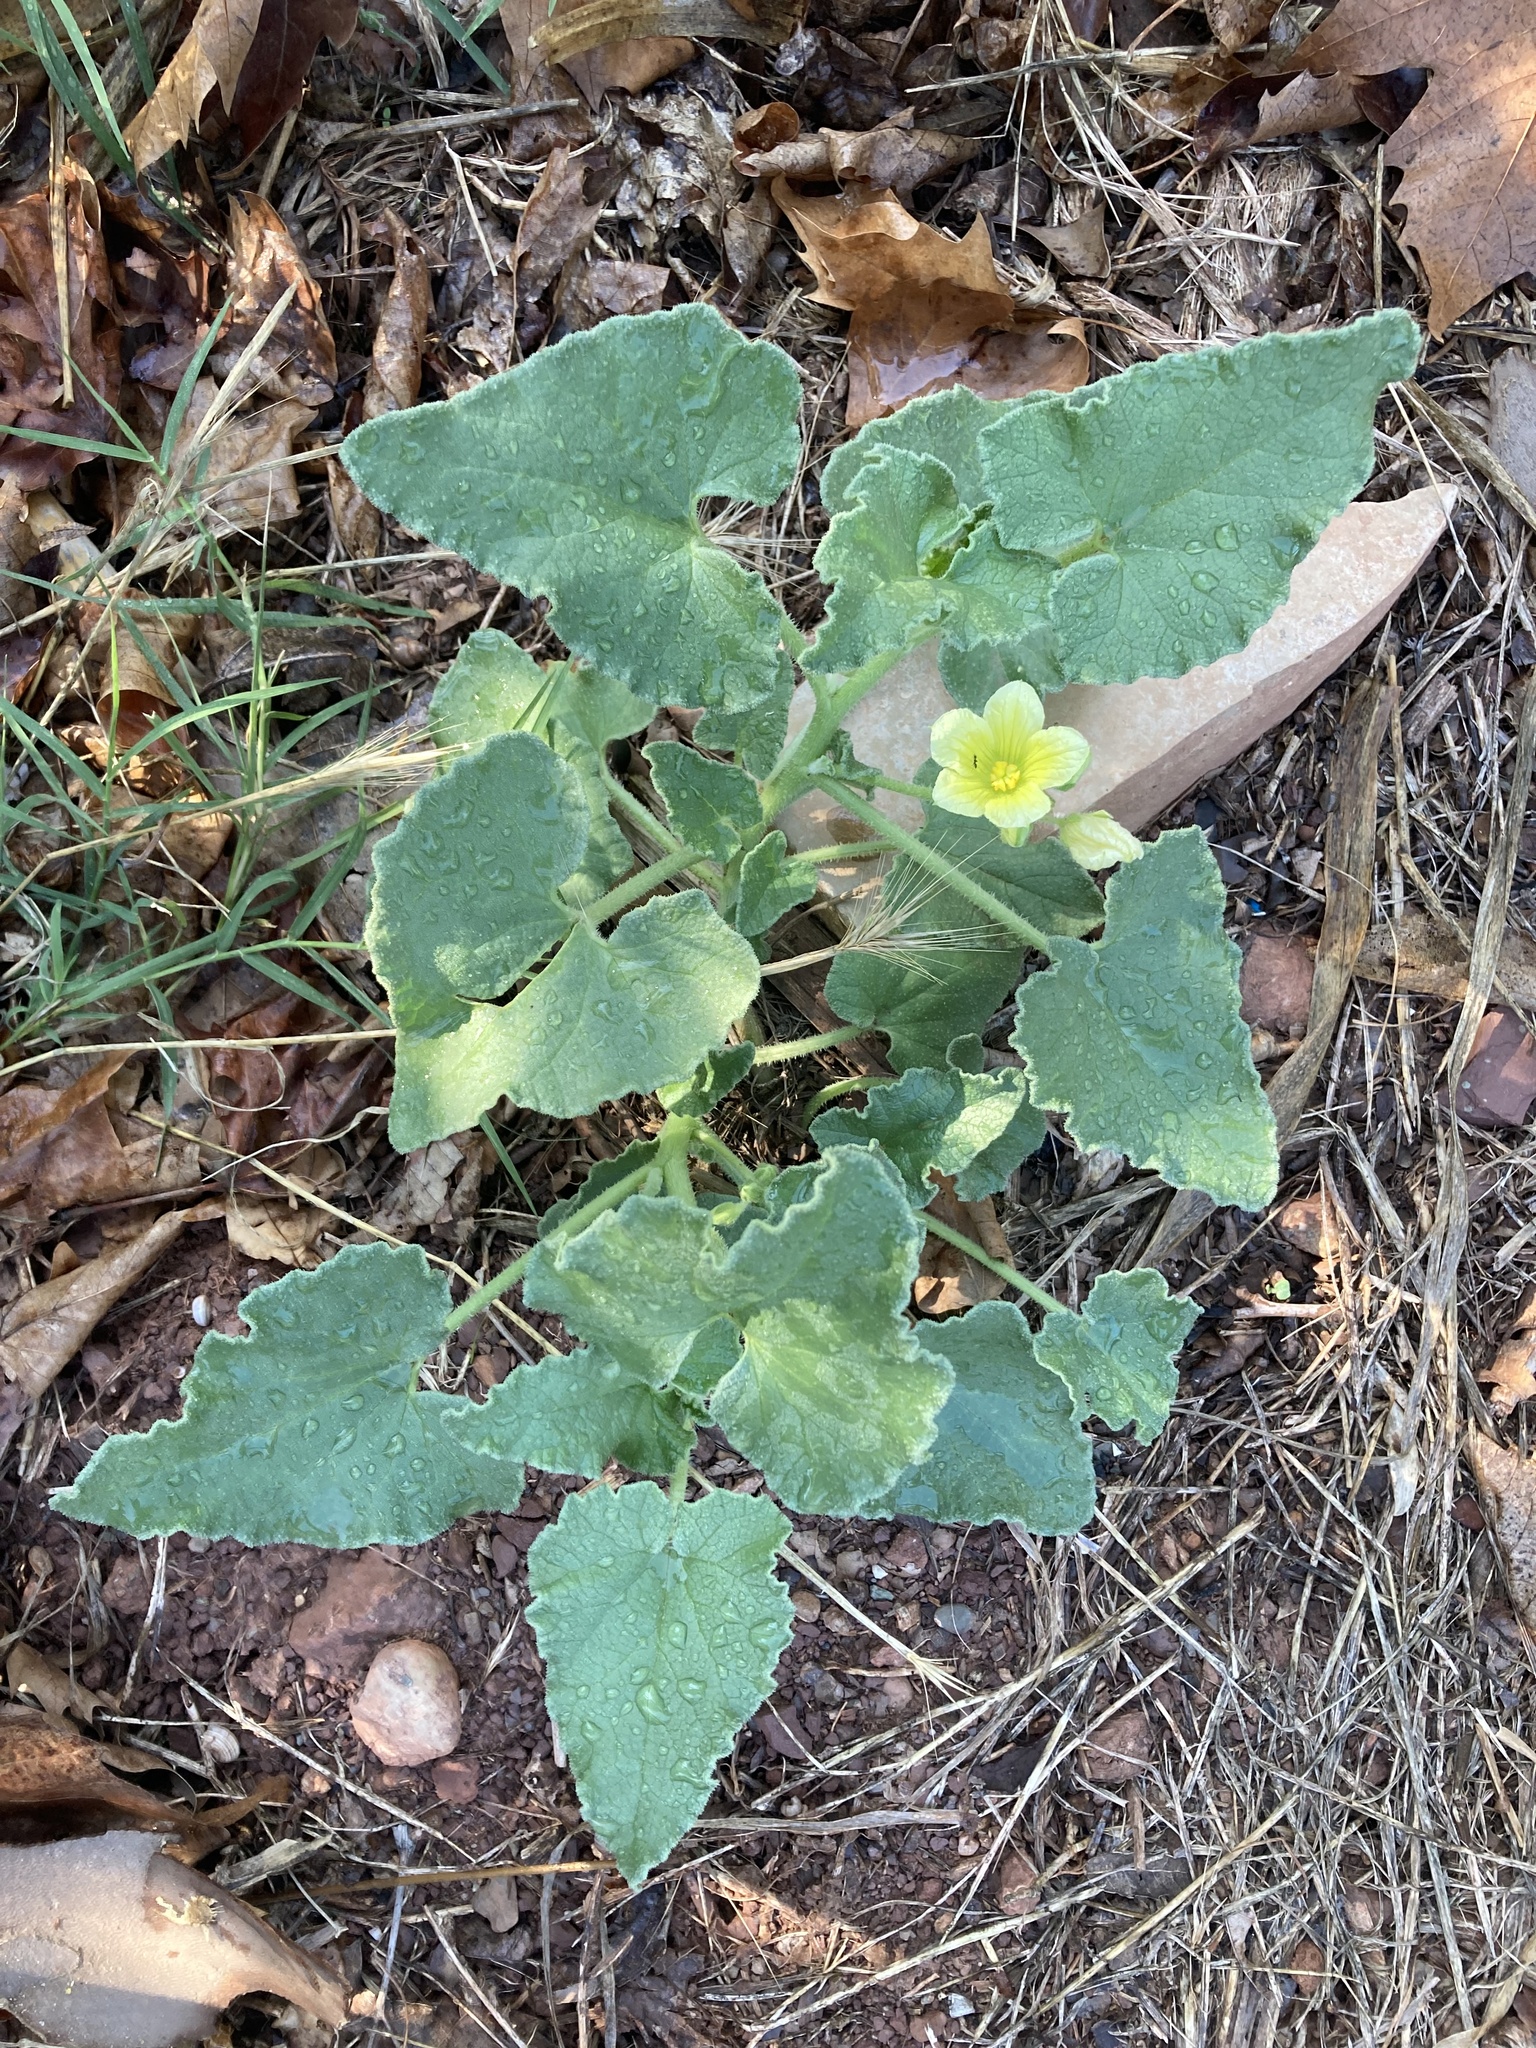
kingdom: Plantae
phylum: Tracheophyta
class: Magnoliopsida
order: Cucurbitales
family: Cucurbitaceae
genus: Ecballium
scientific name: Ecballium elaterium
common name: Squirting cucumber
